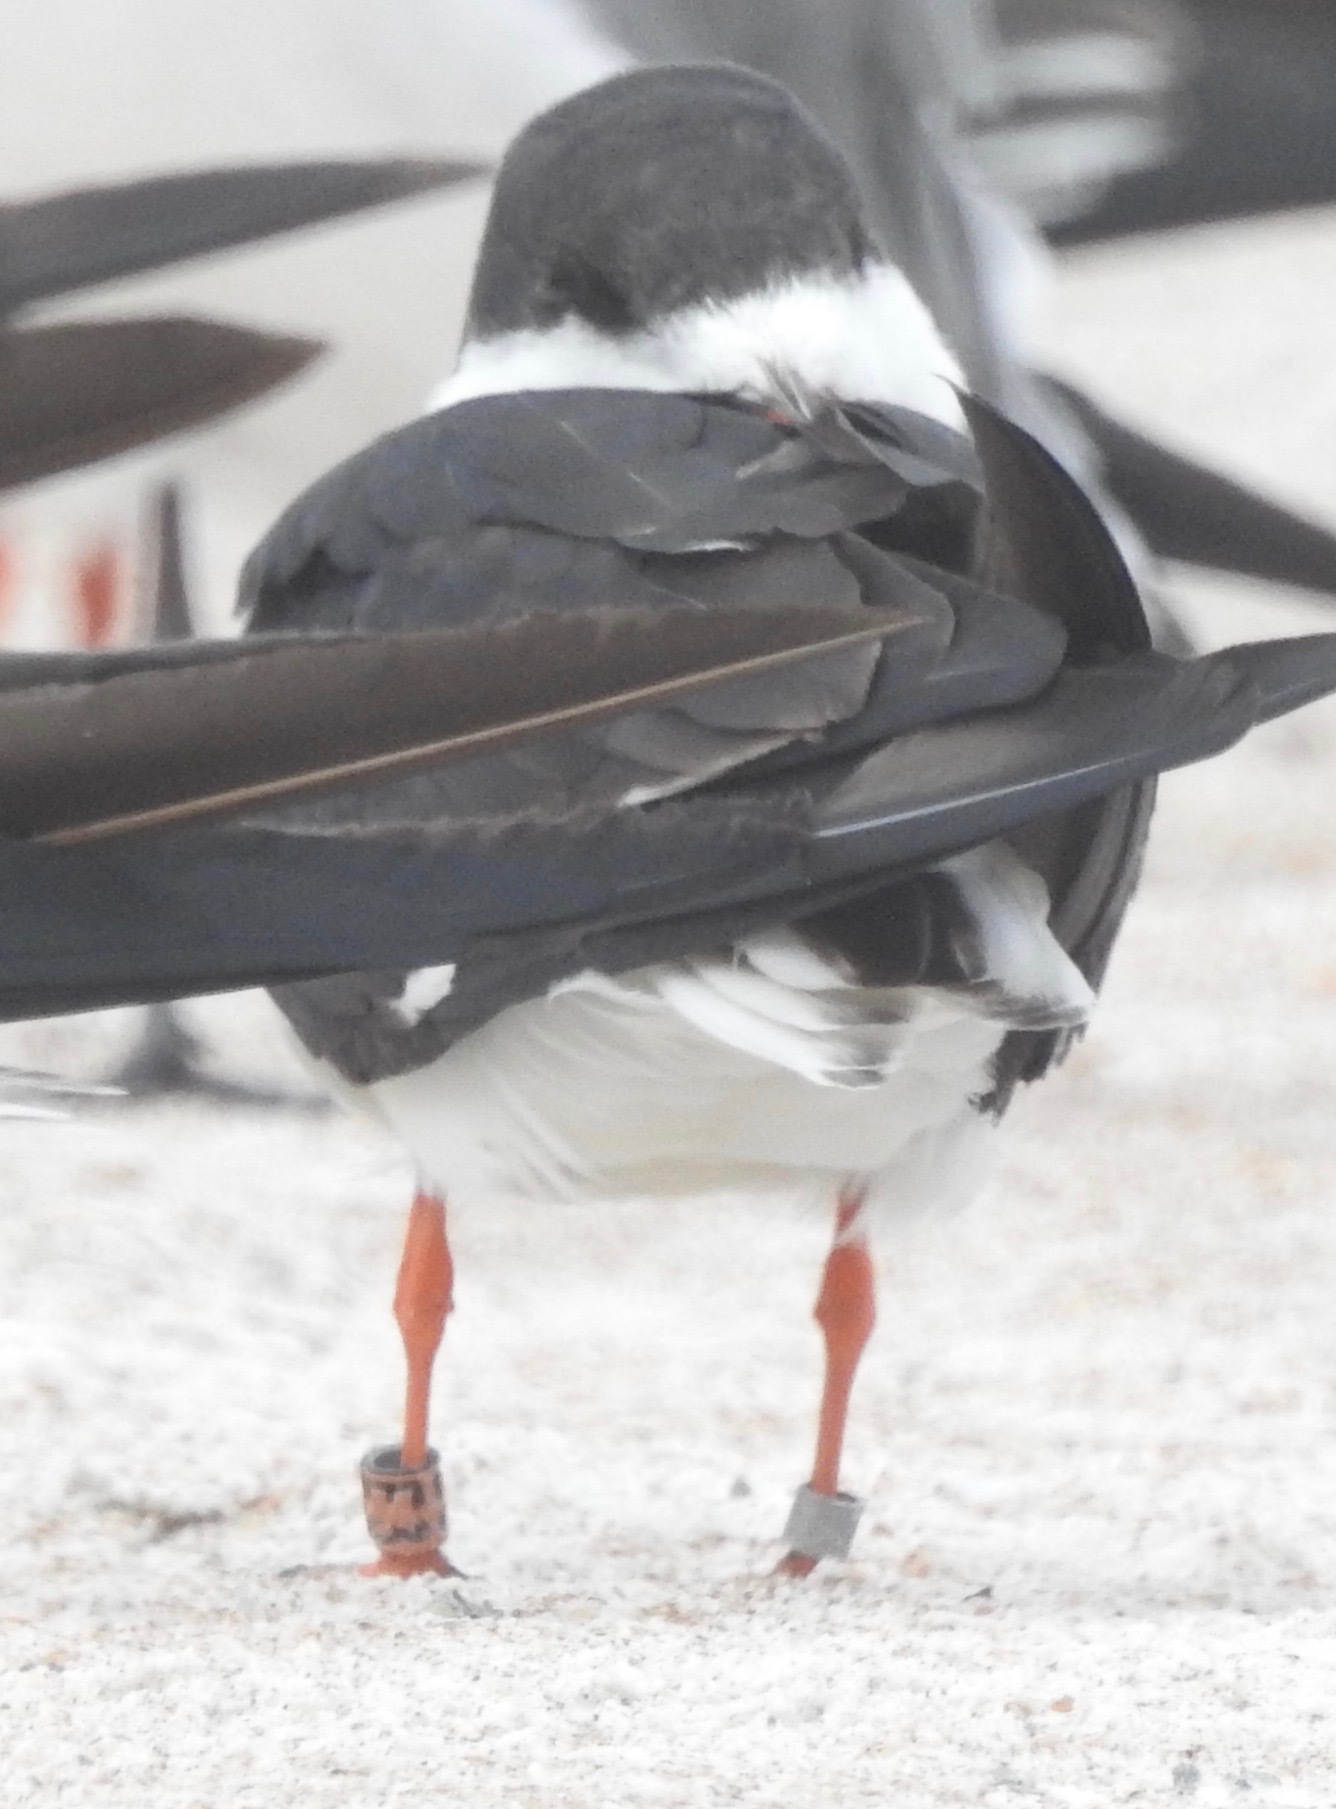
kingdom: Animalia
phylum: Chordata
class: Aves
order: Charadriiformes
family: Laridae
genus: Rynchops
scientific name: Rynchops niger
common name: Black skimmer
